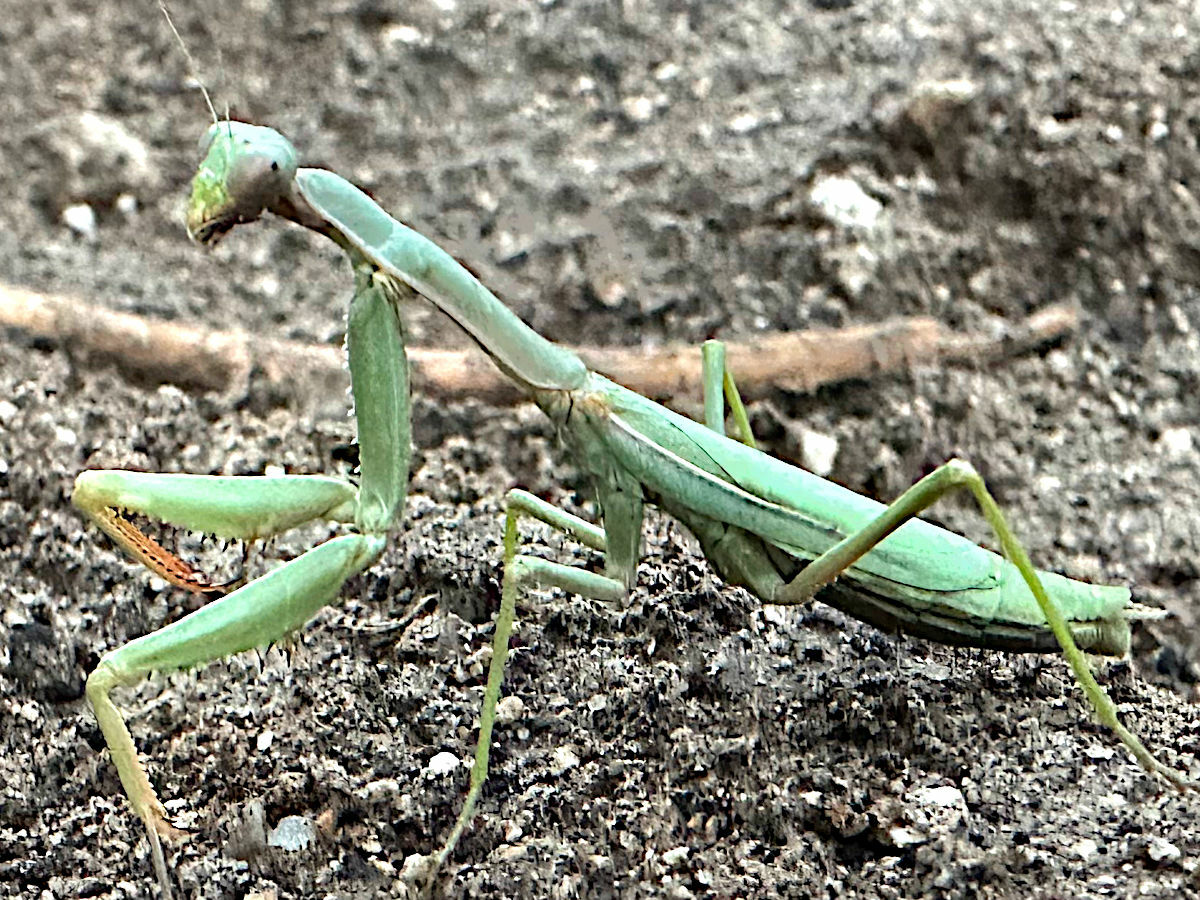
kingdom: Animalia
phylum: Arthropoda
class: Insecta
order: Mantodea
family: Eremiaphilidae
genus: Iris
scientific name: Iris oratoria
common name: Mediterranean mantis
